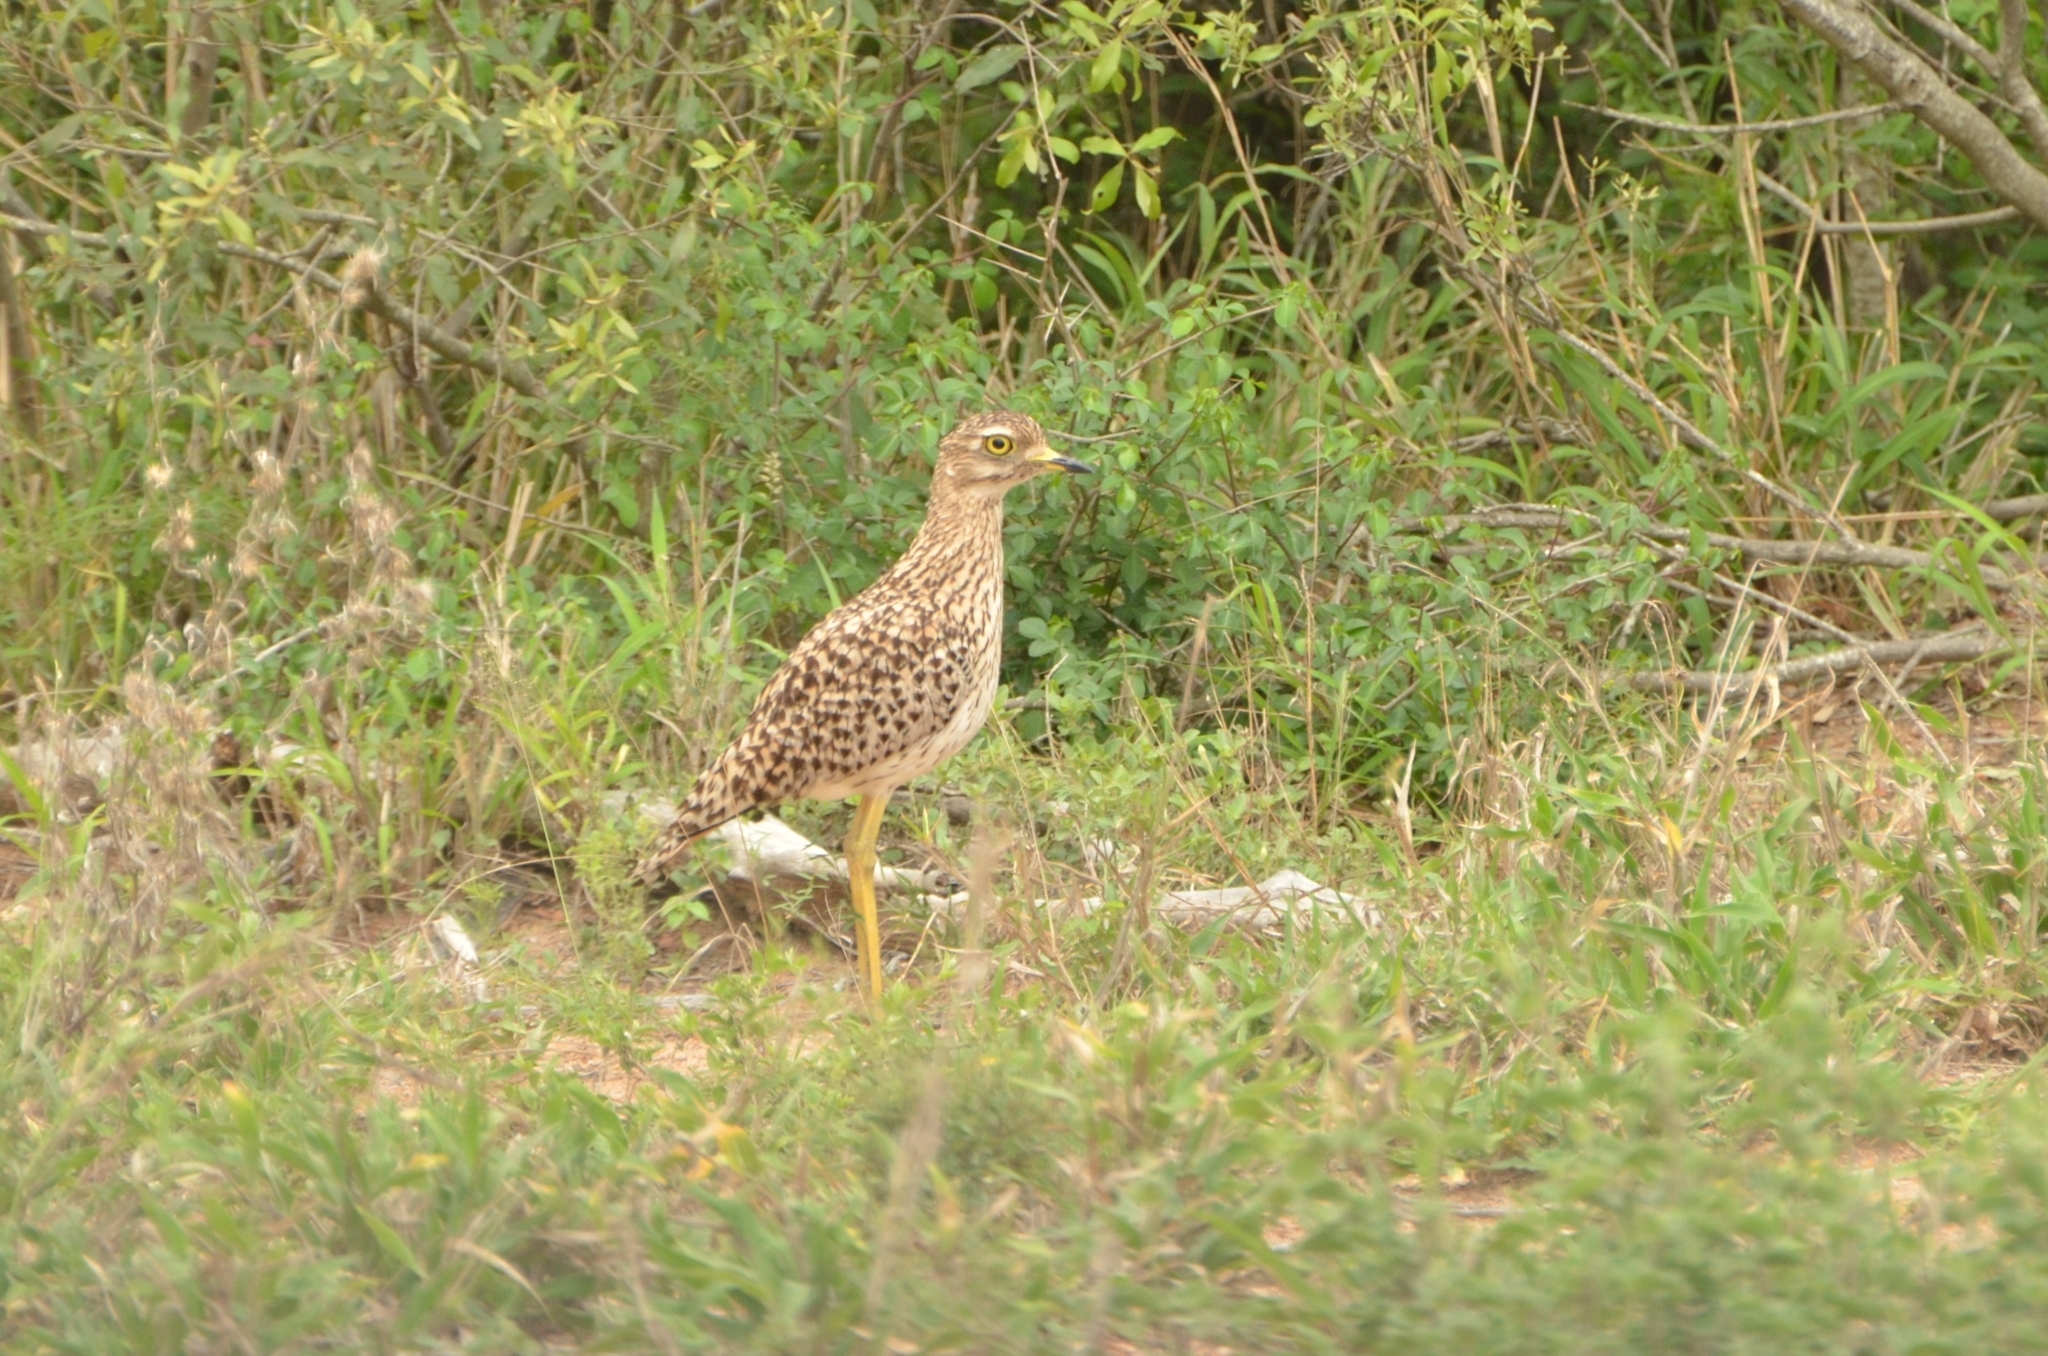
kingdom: Animalia
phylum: Chordata
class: Aves
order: Charadriiformes
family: Burhinidae
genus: Burhinus
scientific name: Burhinus capensis
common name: Spotted thick-knee
